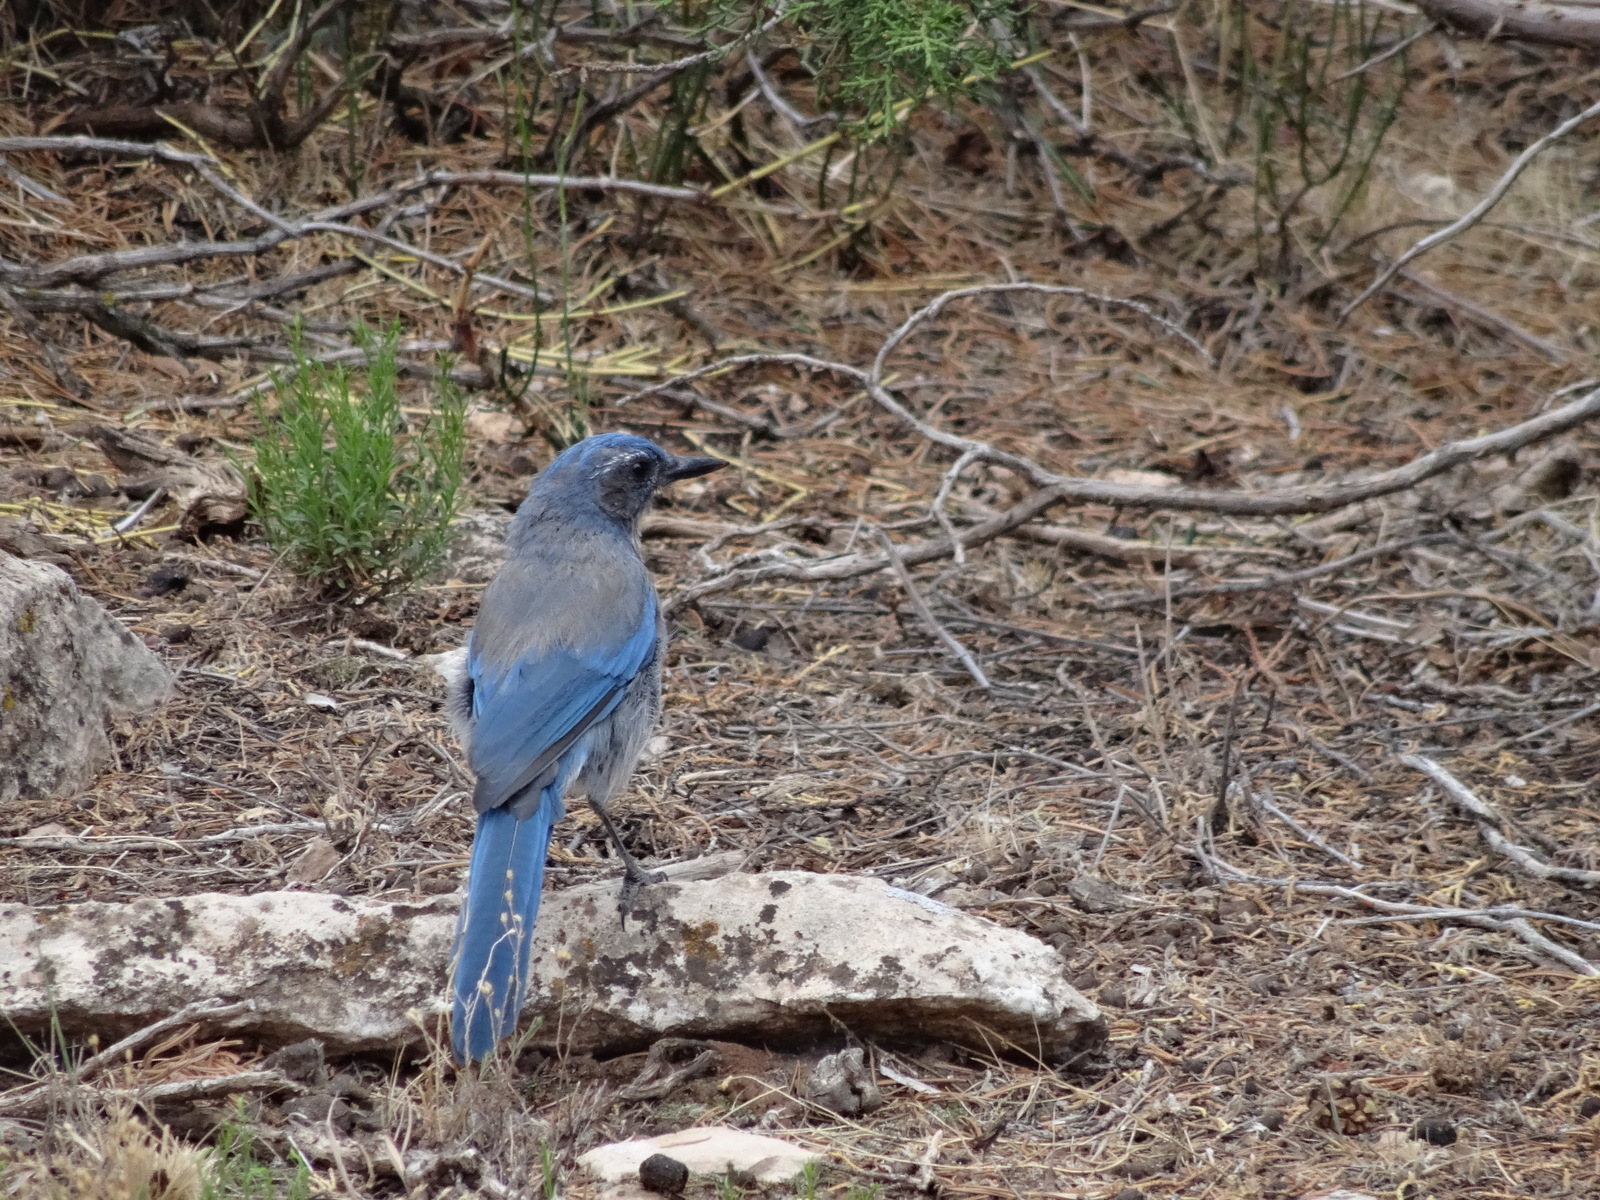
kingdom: Animalia
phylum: Chordata
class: Aves
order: Passeriformes
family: Corvidae
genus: Aphelocoma
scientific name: Aphelocoma woodhouseii
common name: Woodhouse's scrub-jay
